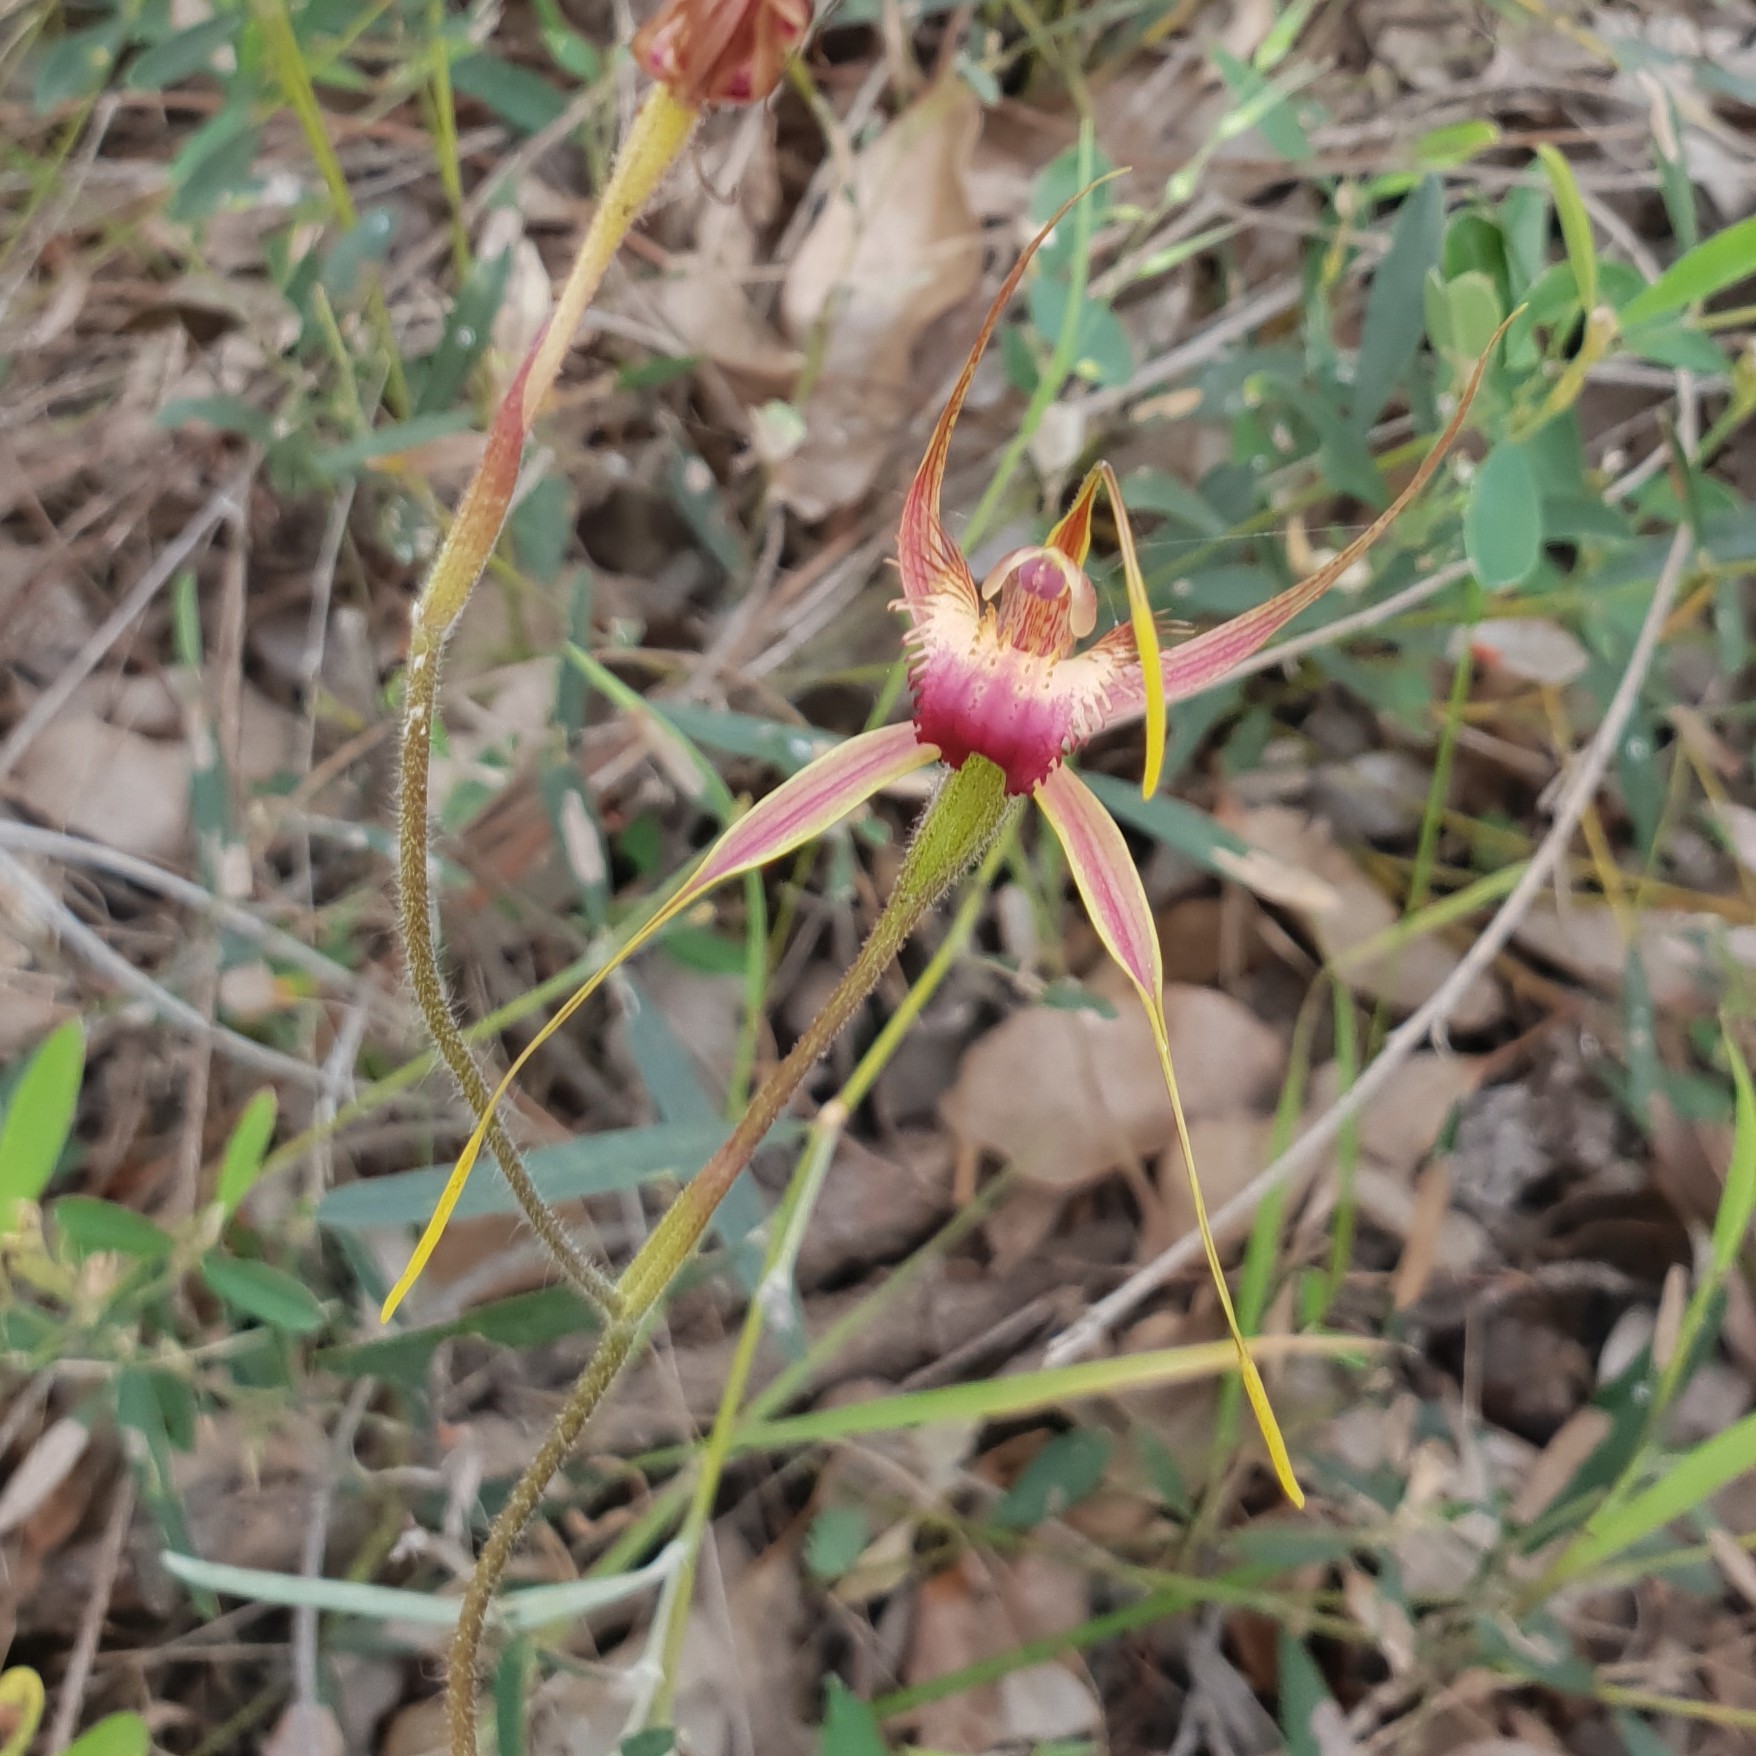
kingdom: Plantae
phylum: Tracheophyta
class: Liliopsida
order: Asparagales
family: Orchidaceae
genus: Caladenia
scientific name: Caladenia ferruginea
